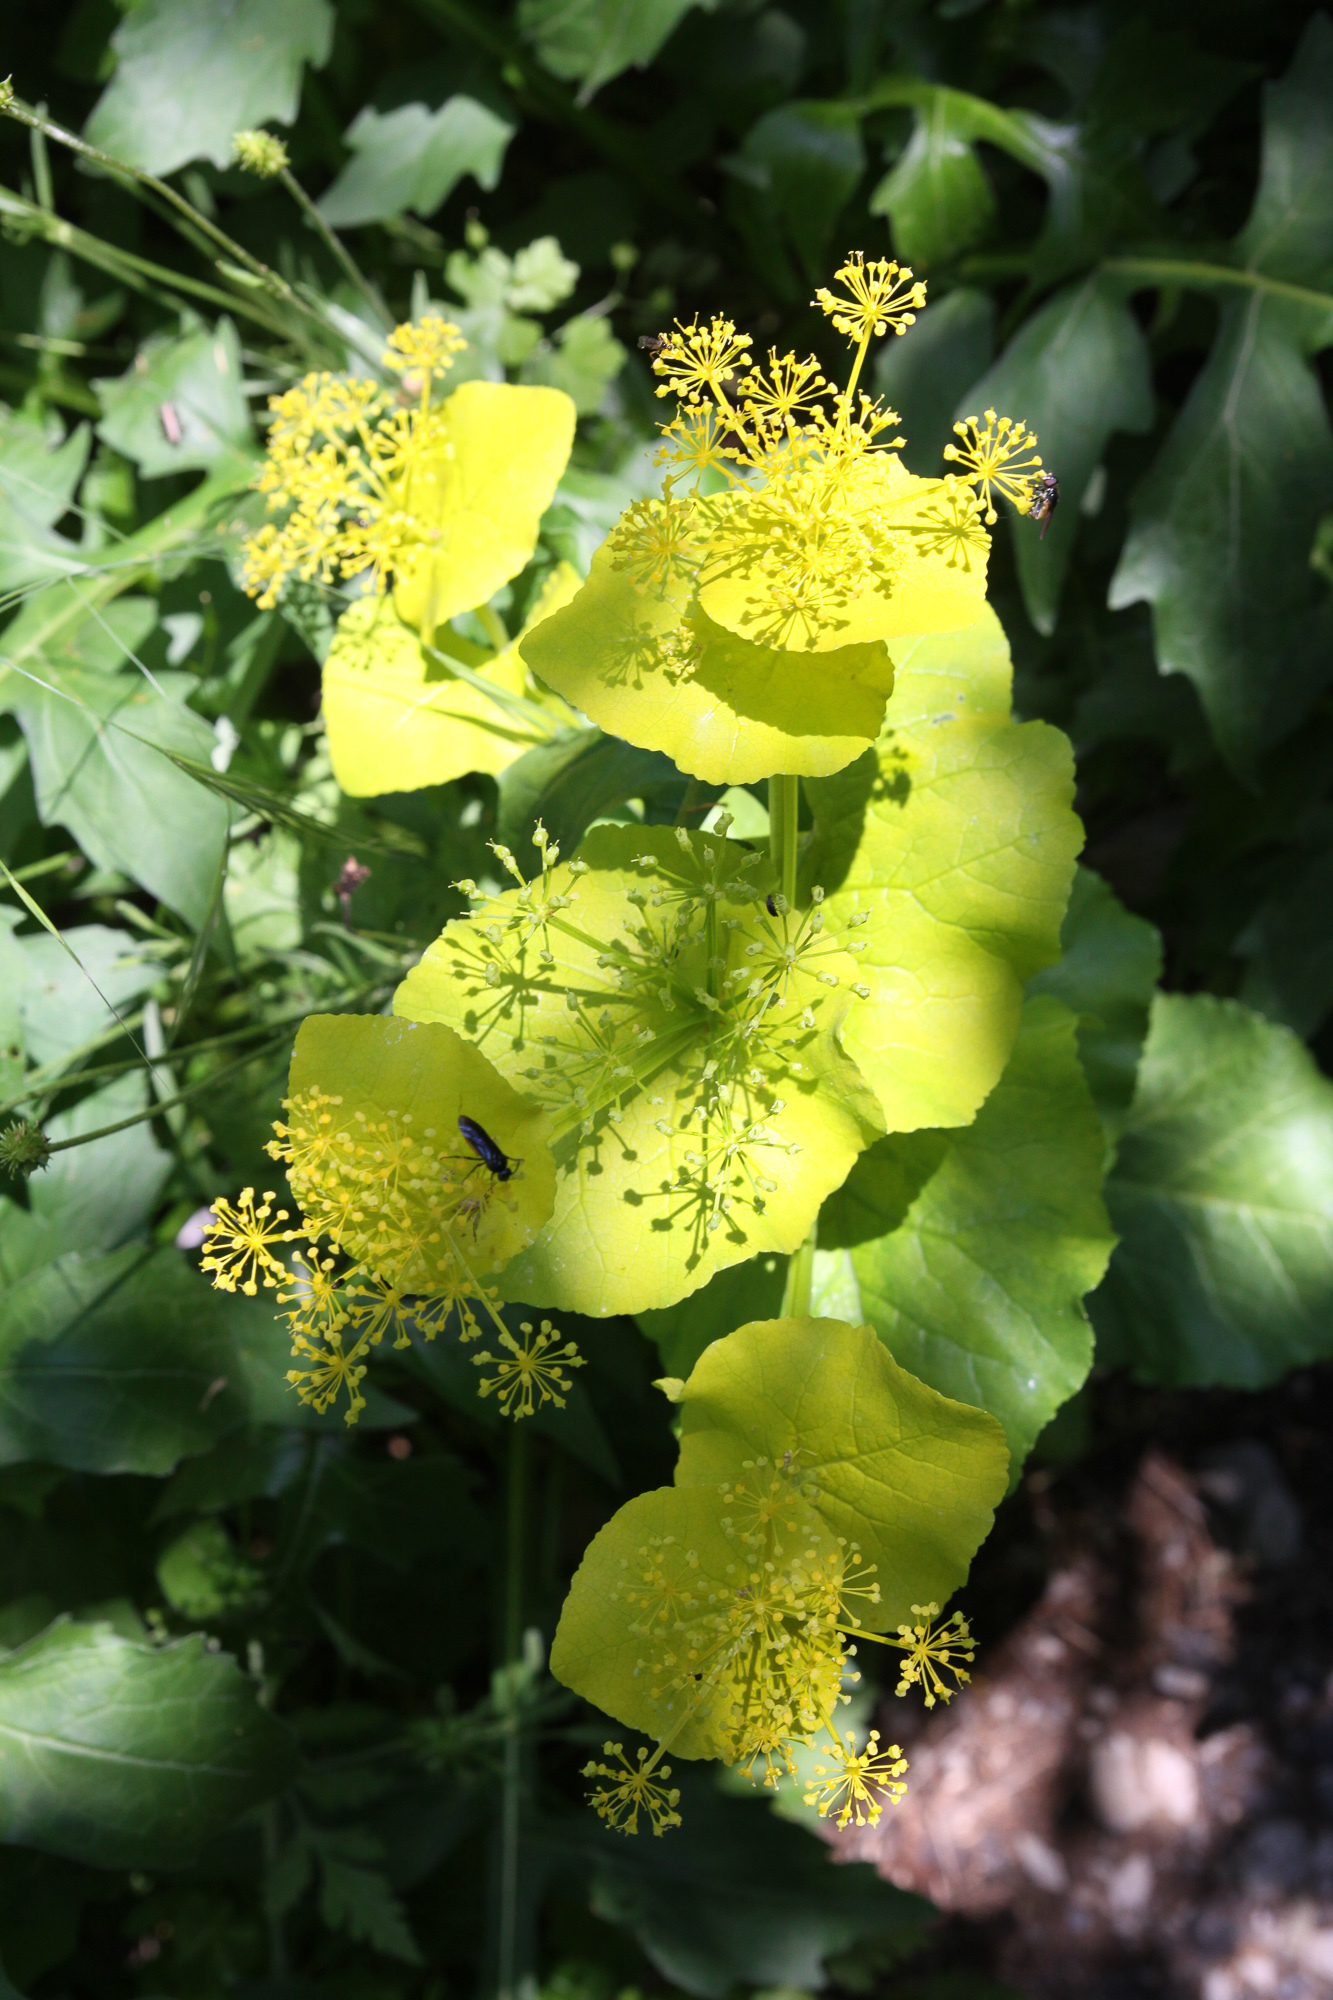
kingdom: Plantae
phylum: Tracheophyta
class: Magnoliopsida
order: Apiales
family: Apiaceae
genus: Smyrnium
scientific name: Smyrnium perfoliatum
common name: Perfoliate alexanders
